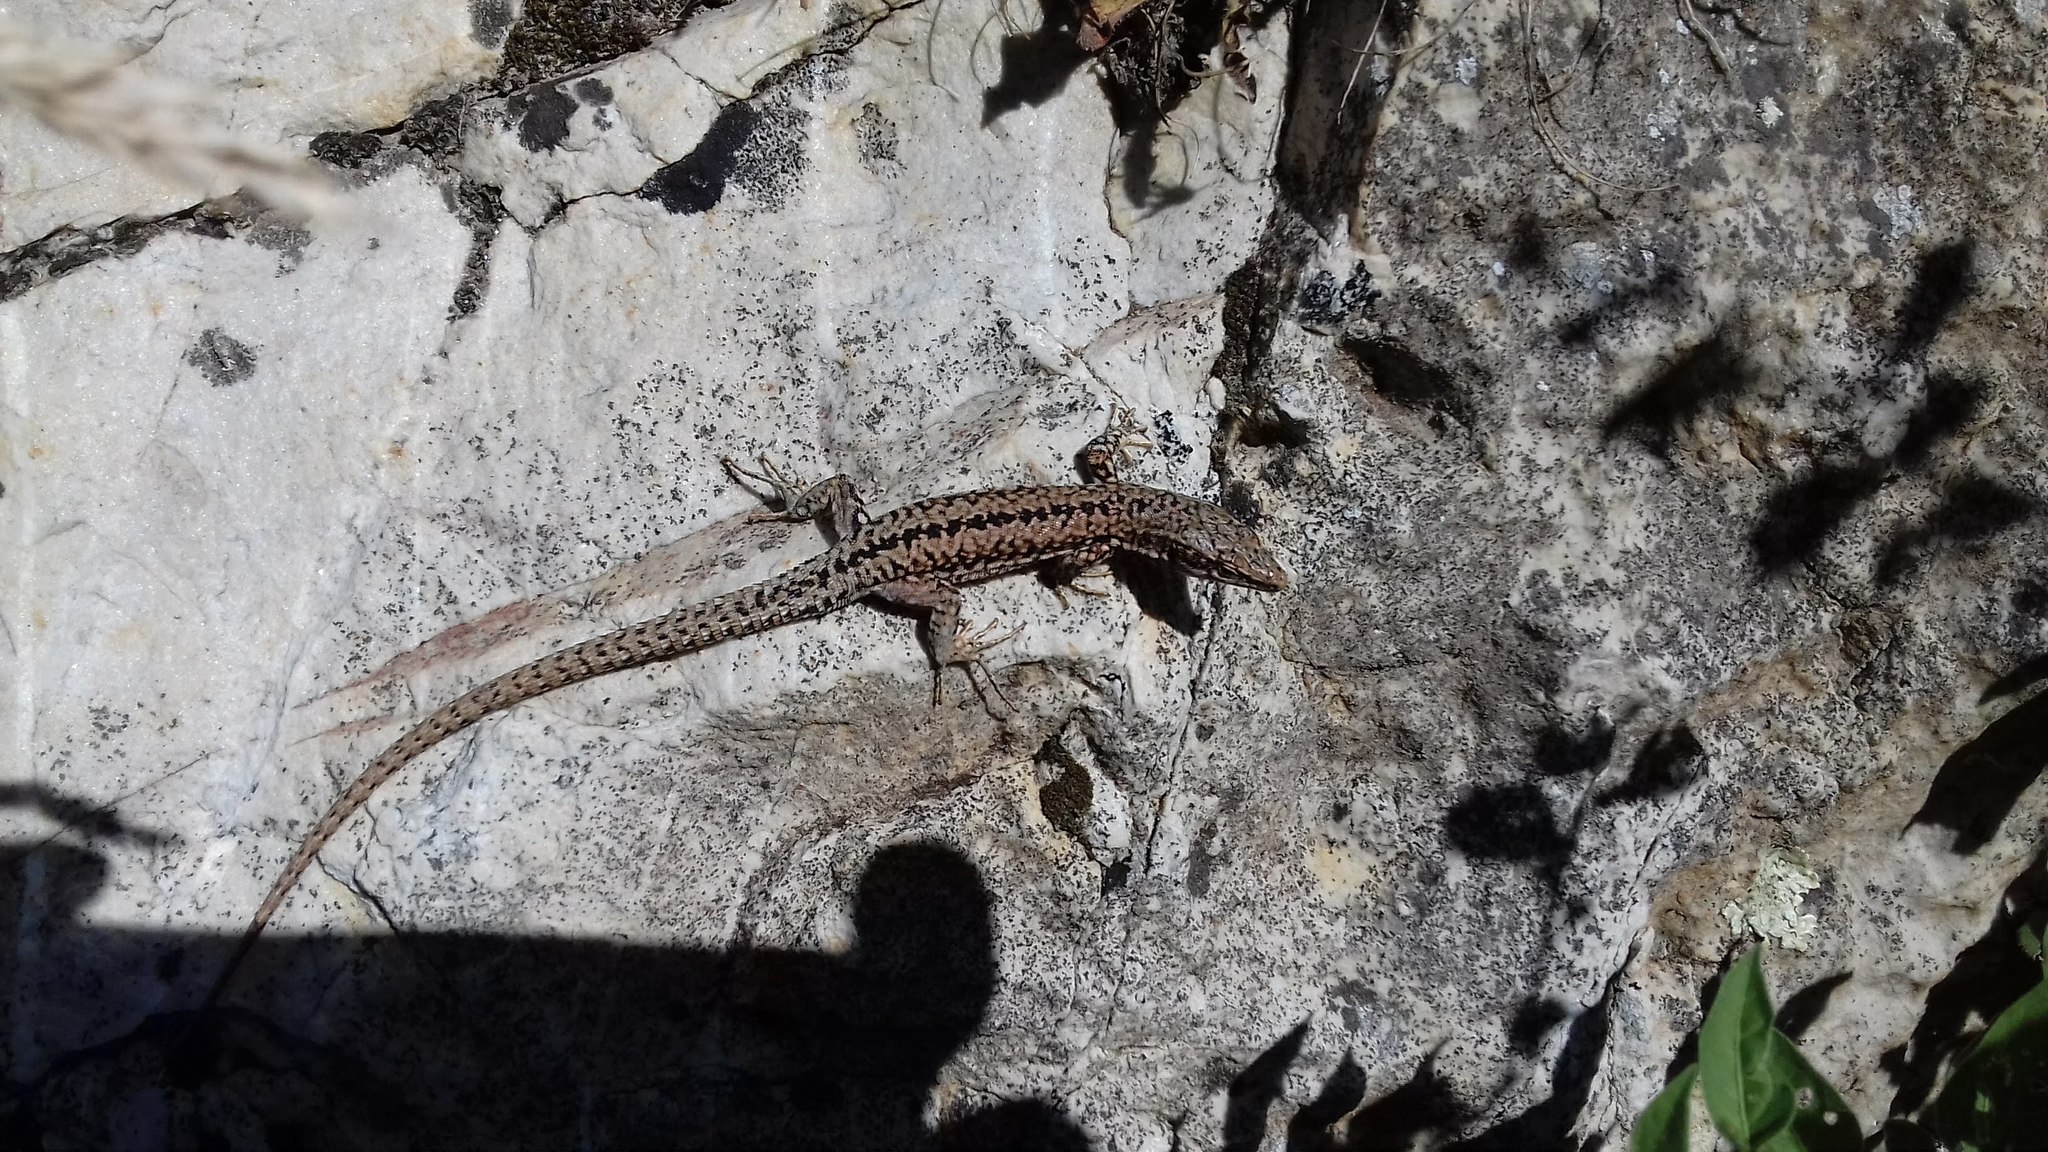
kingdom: Animalia
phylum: Chordata
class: Squamata
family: Lacertidae
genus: Podarcis
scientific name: Podarcis muralis
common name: Common wall lizard
